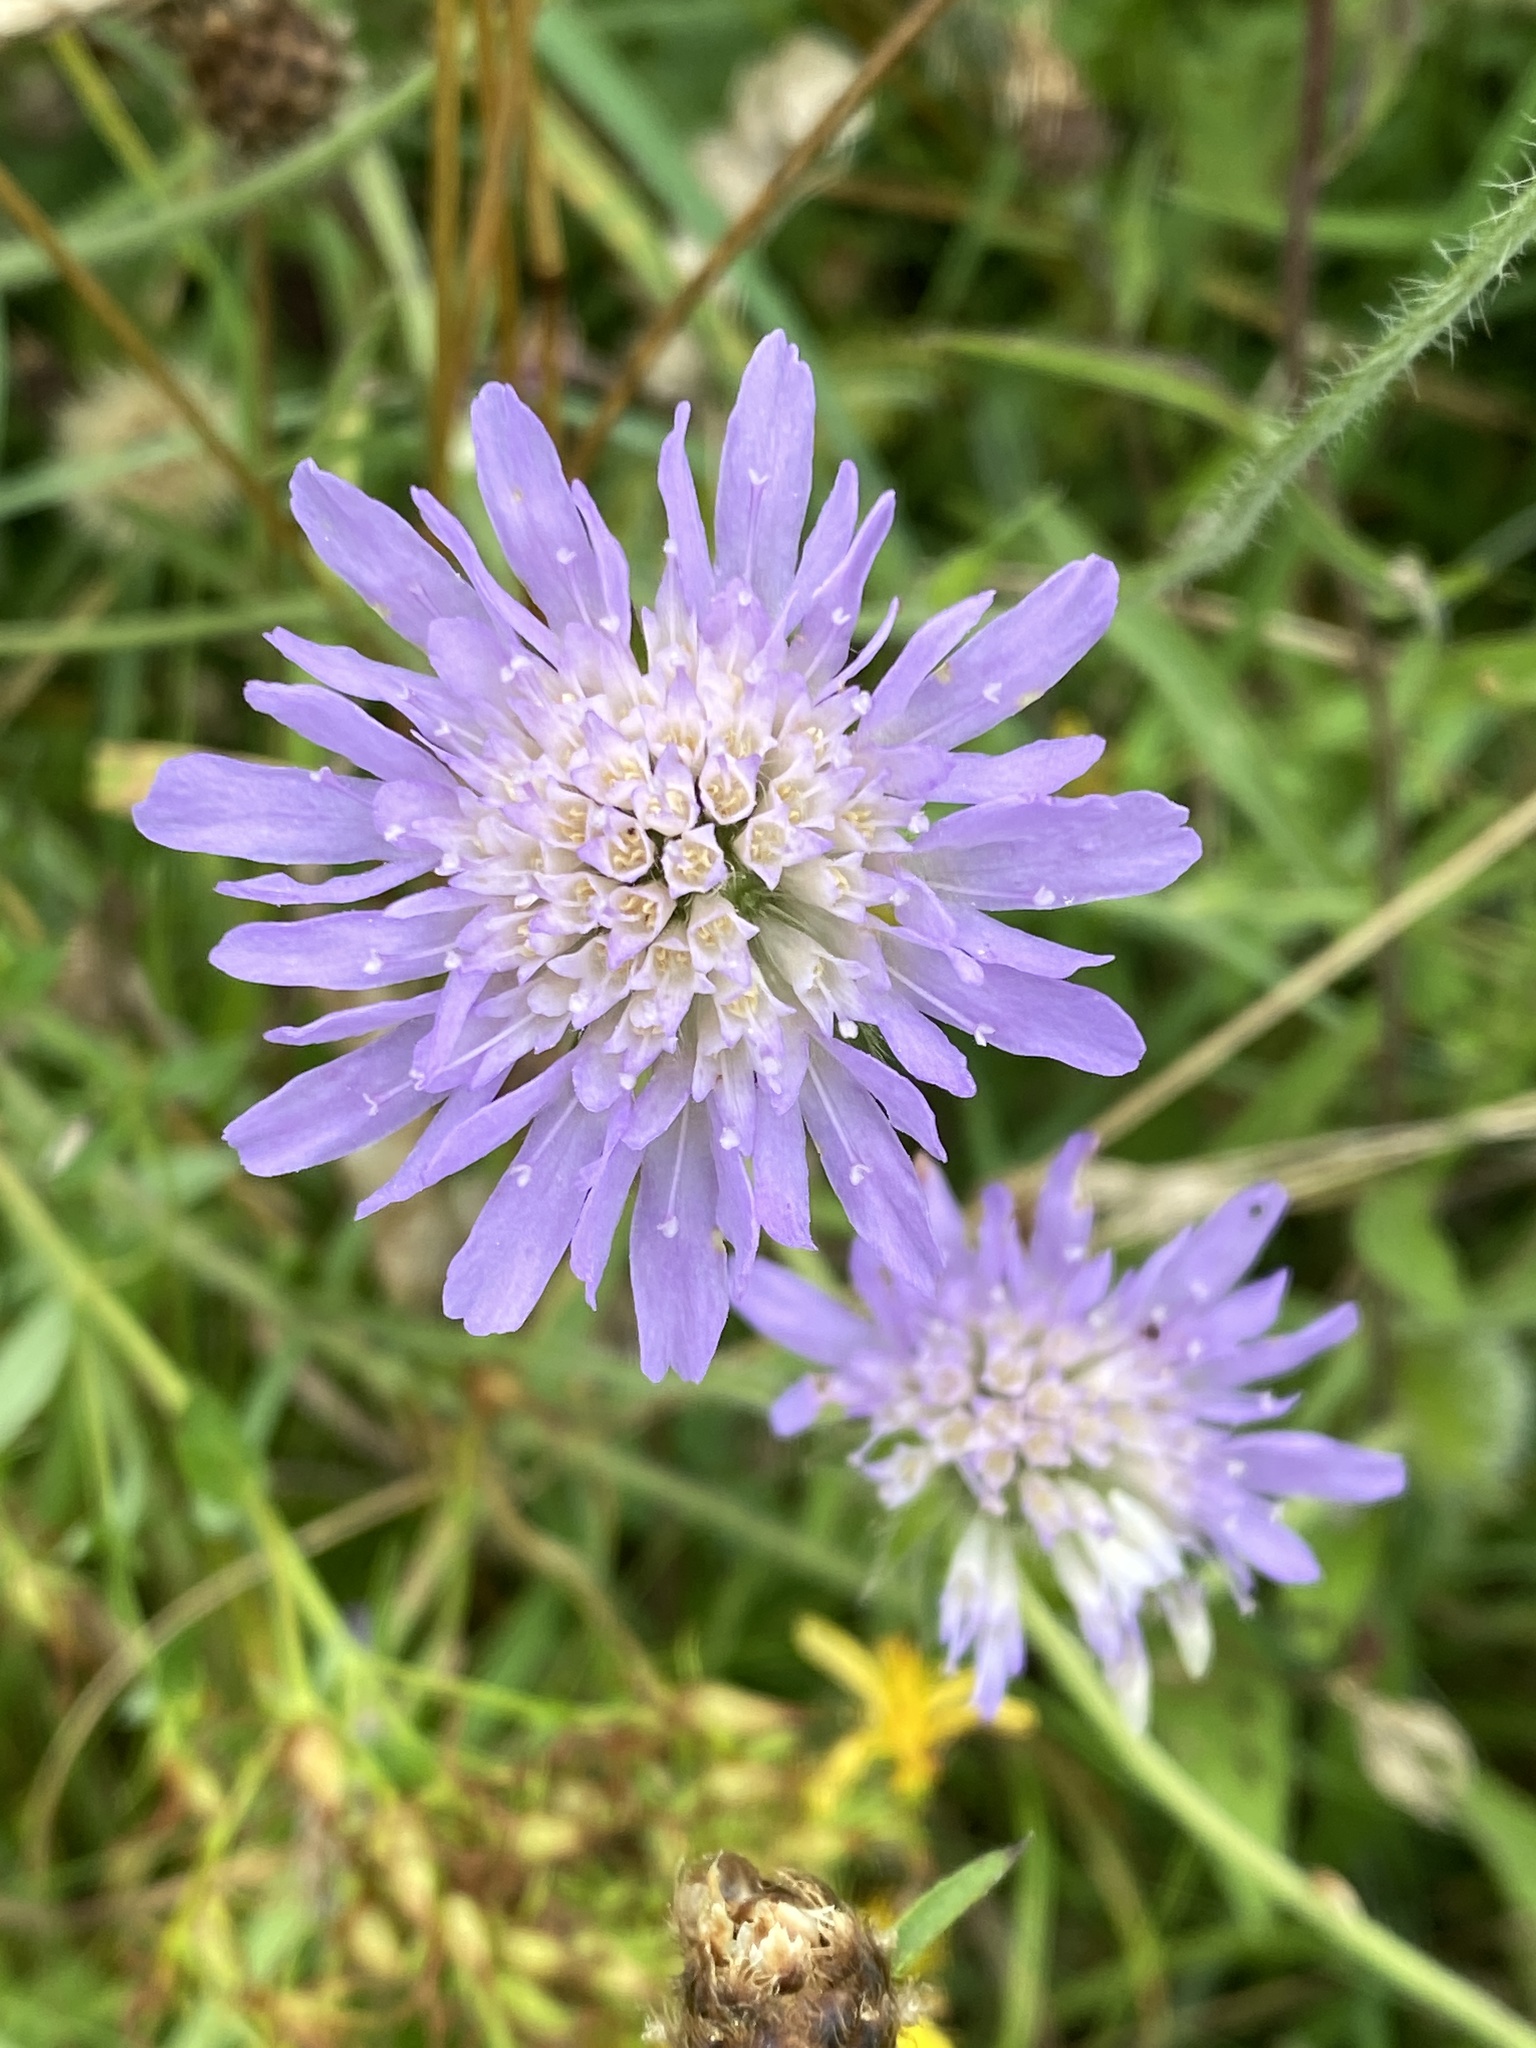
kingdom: Plantae
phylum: Tracheophyta
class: Magnoliopsida
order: Dipsacales
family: Caprifoliaceae
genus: Knautia
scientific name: Knautia arvensis
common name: Field scabiosa
